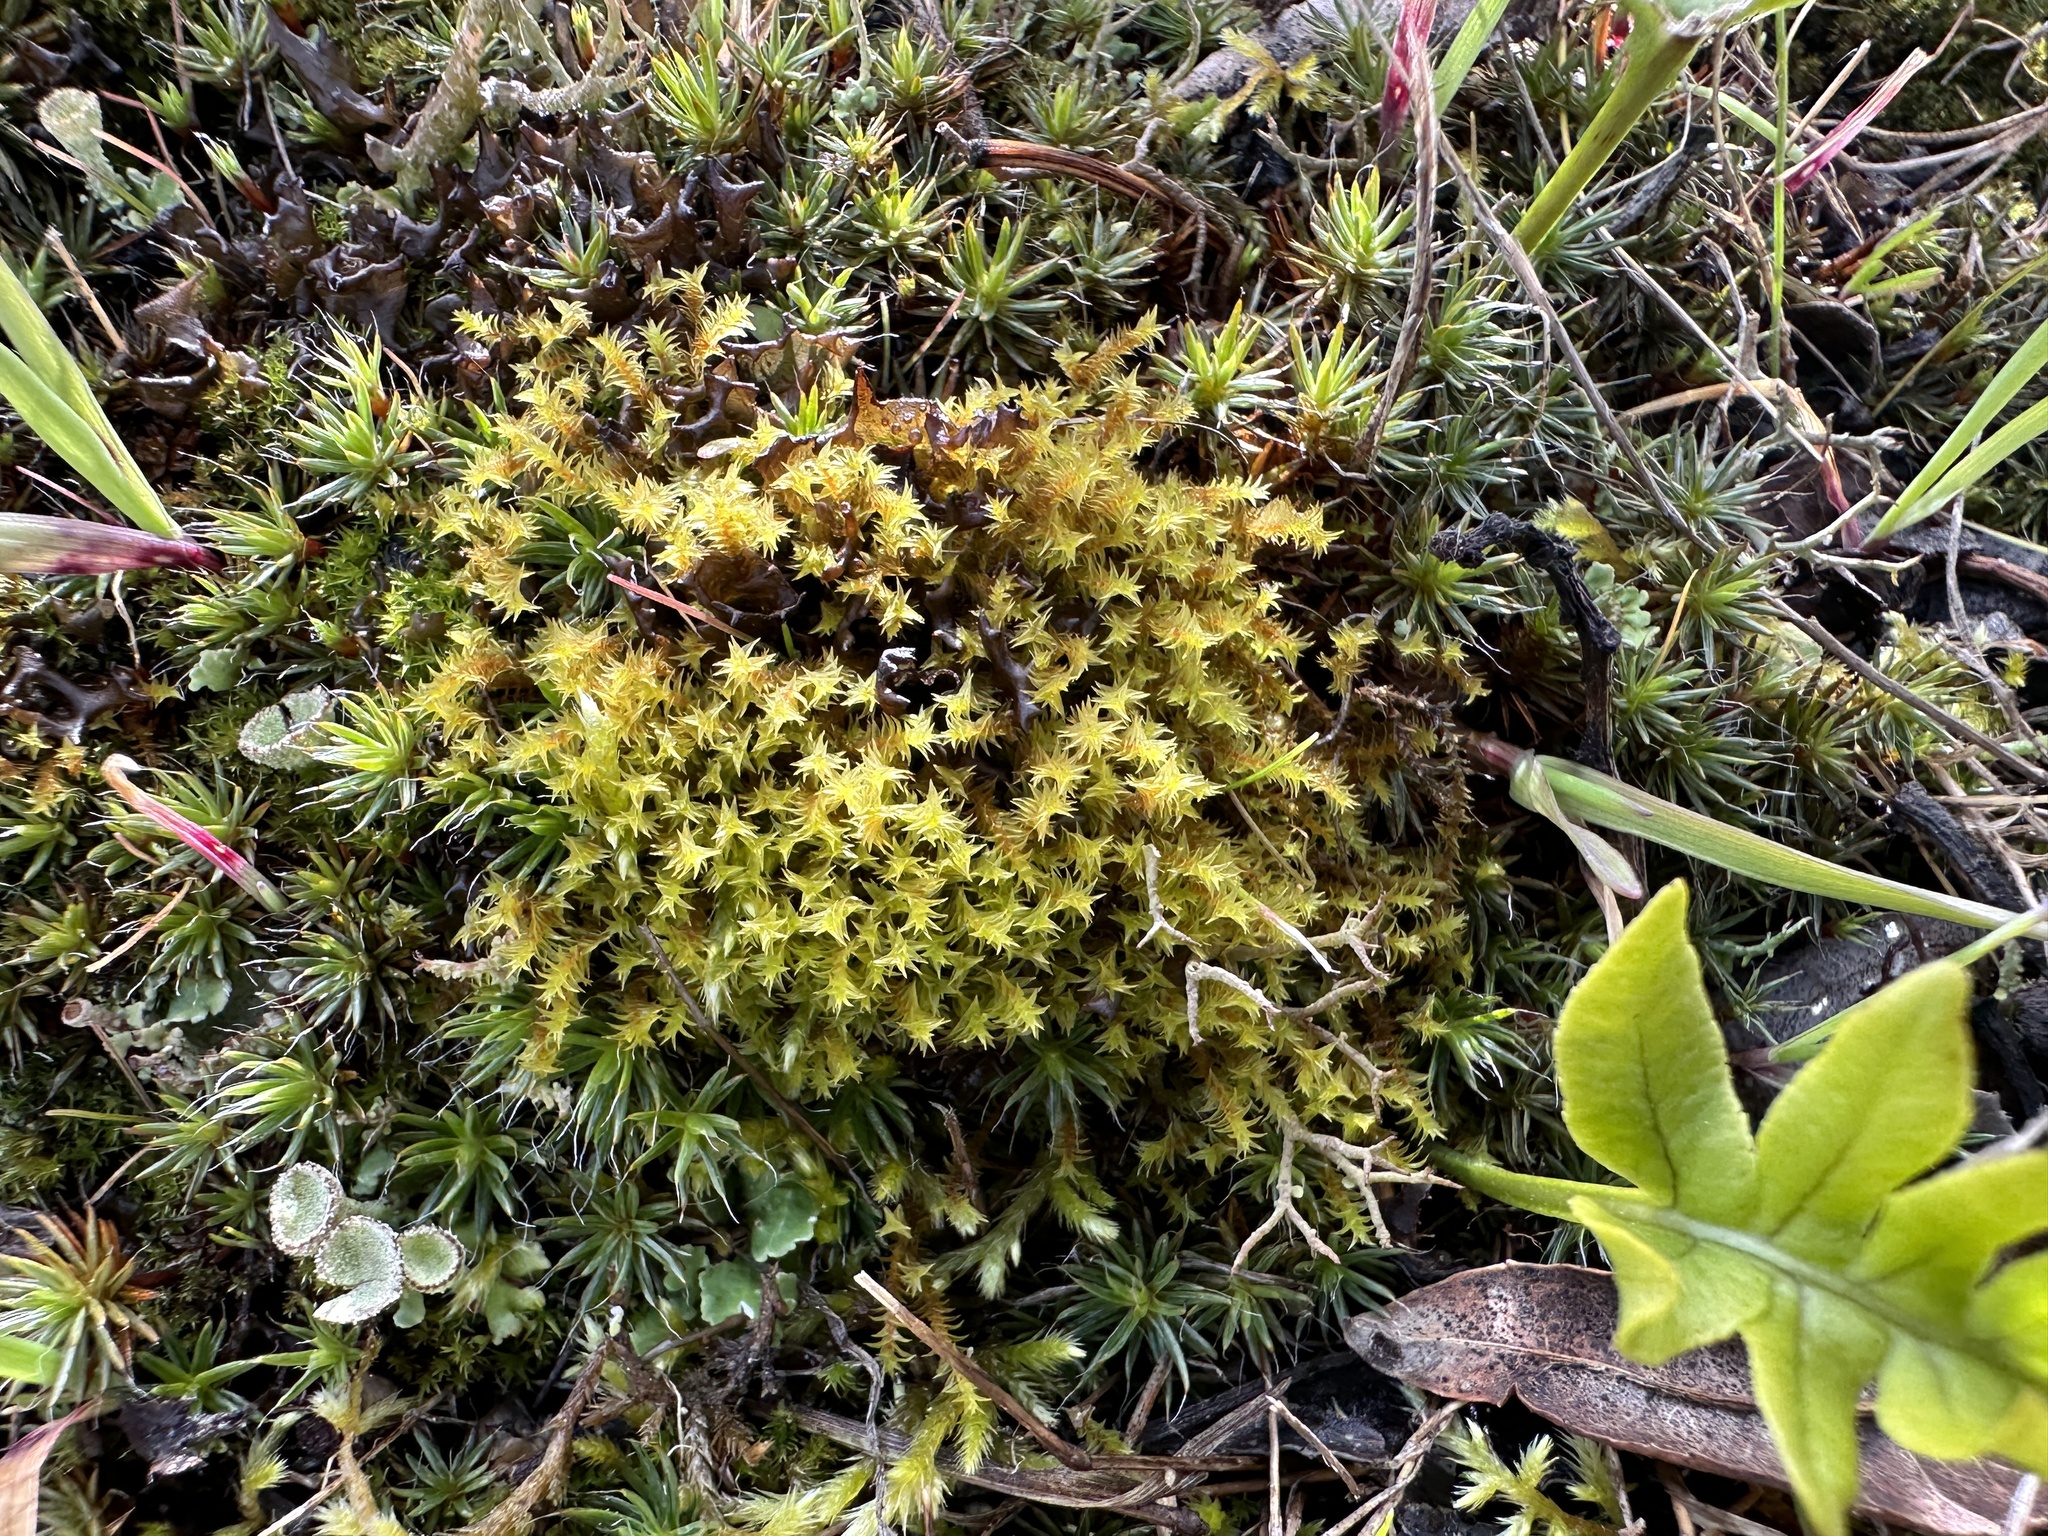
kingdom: Plantae
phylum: Bryophyta
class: Bryopsida
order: Pottiales
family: Pottiaceae
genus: Triquetrella
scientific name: Triquetrella californica
